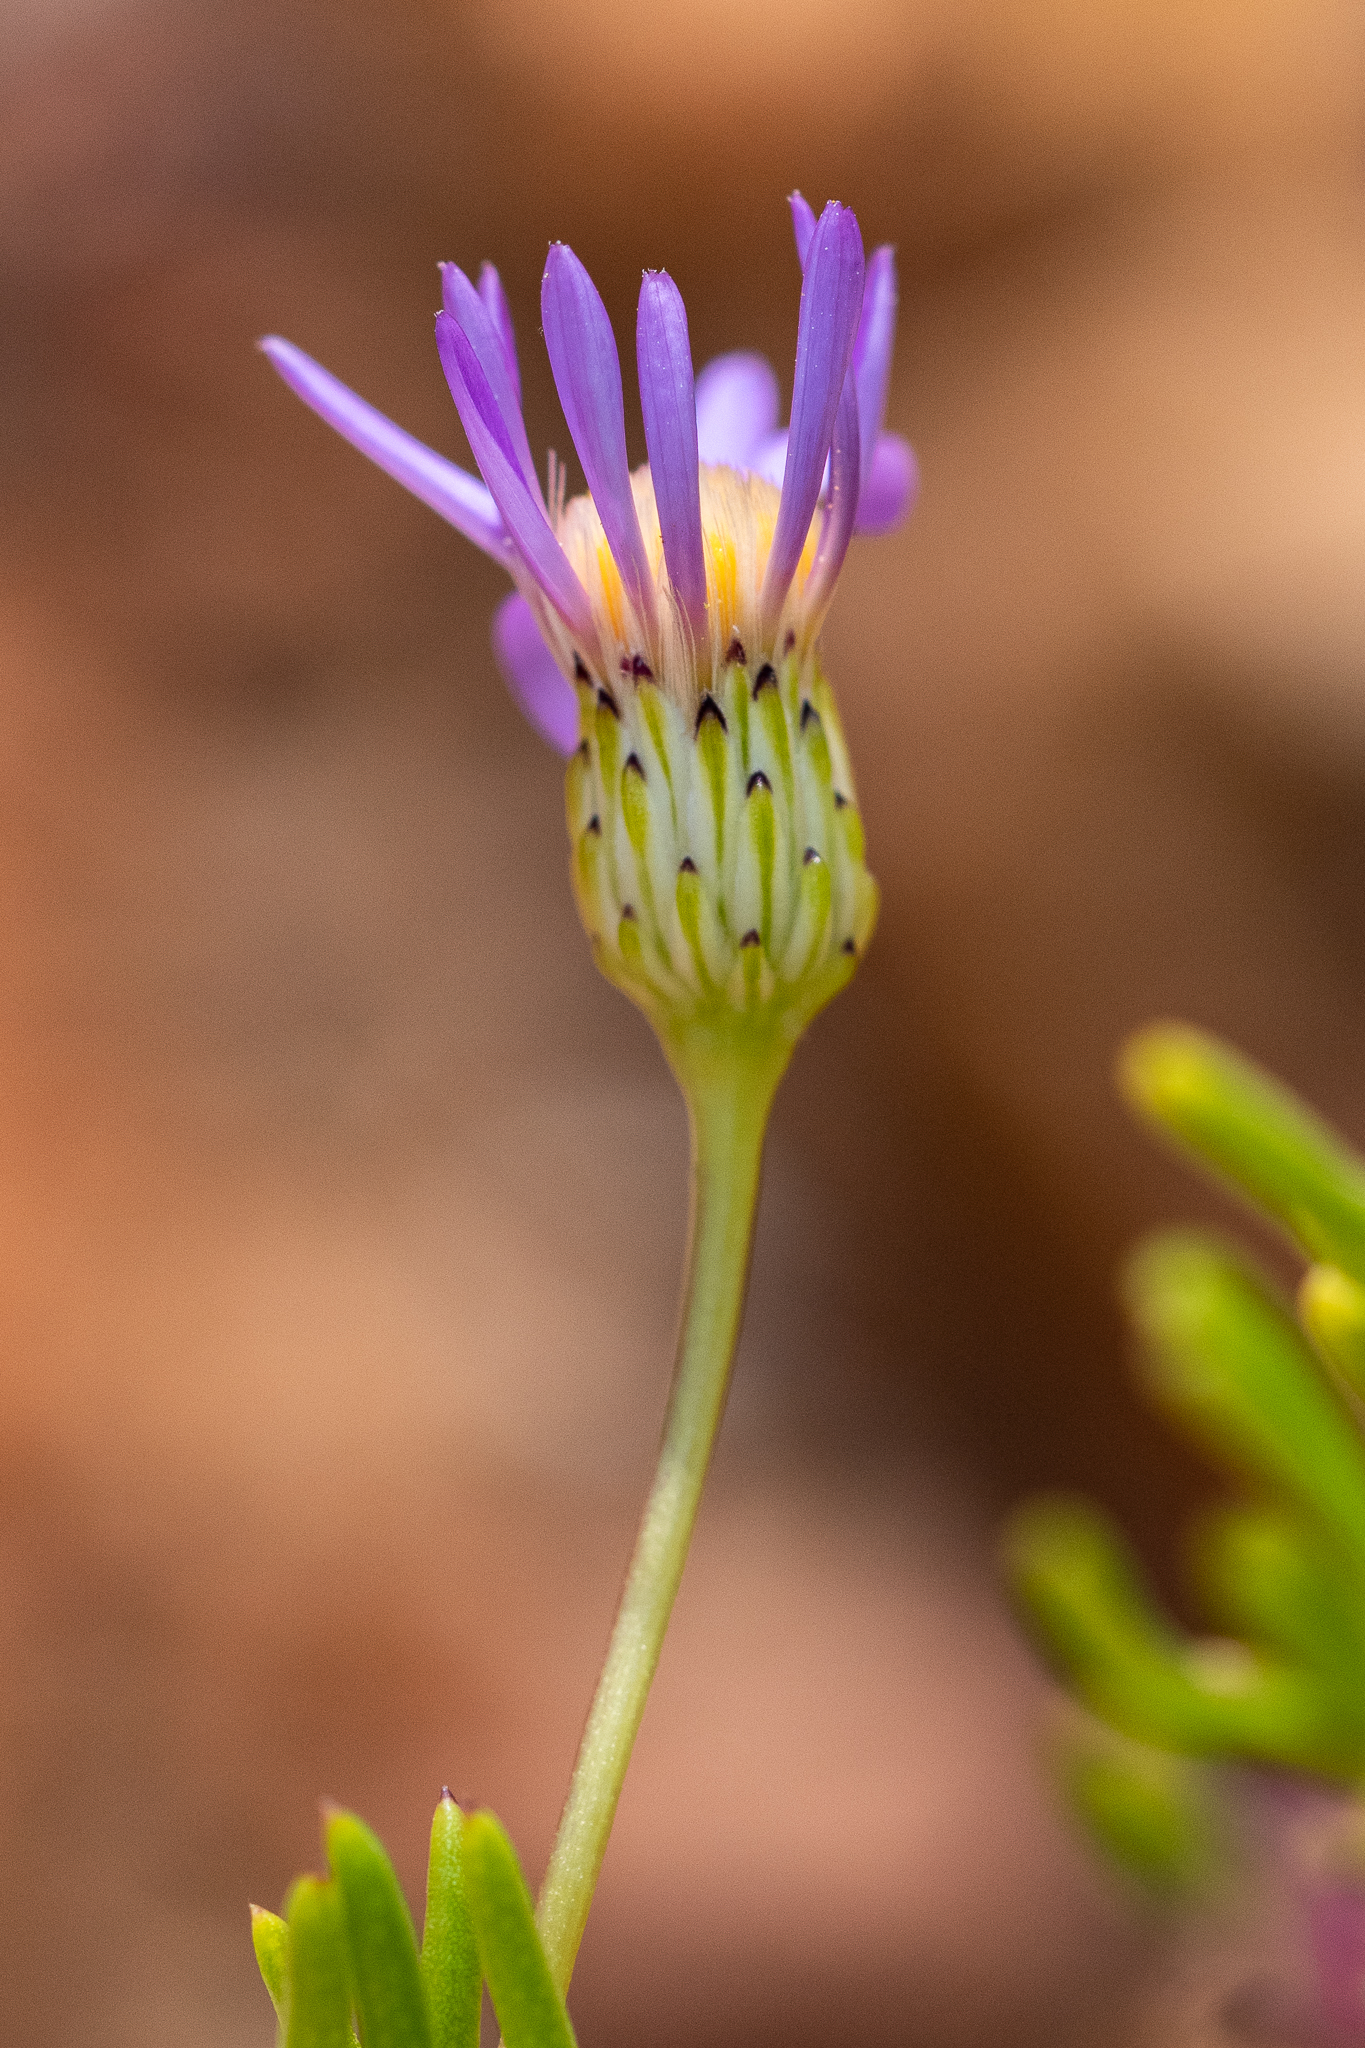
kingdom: Plantae
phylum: Tracheophyta
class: Magnoliopsida
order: Asterales
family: Asteraceae
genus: Felicia
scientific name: Felicia filifolia
